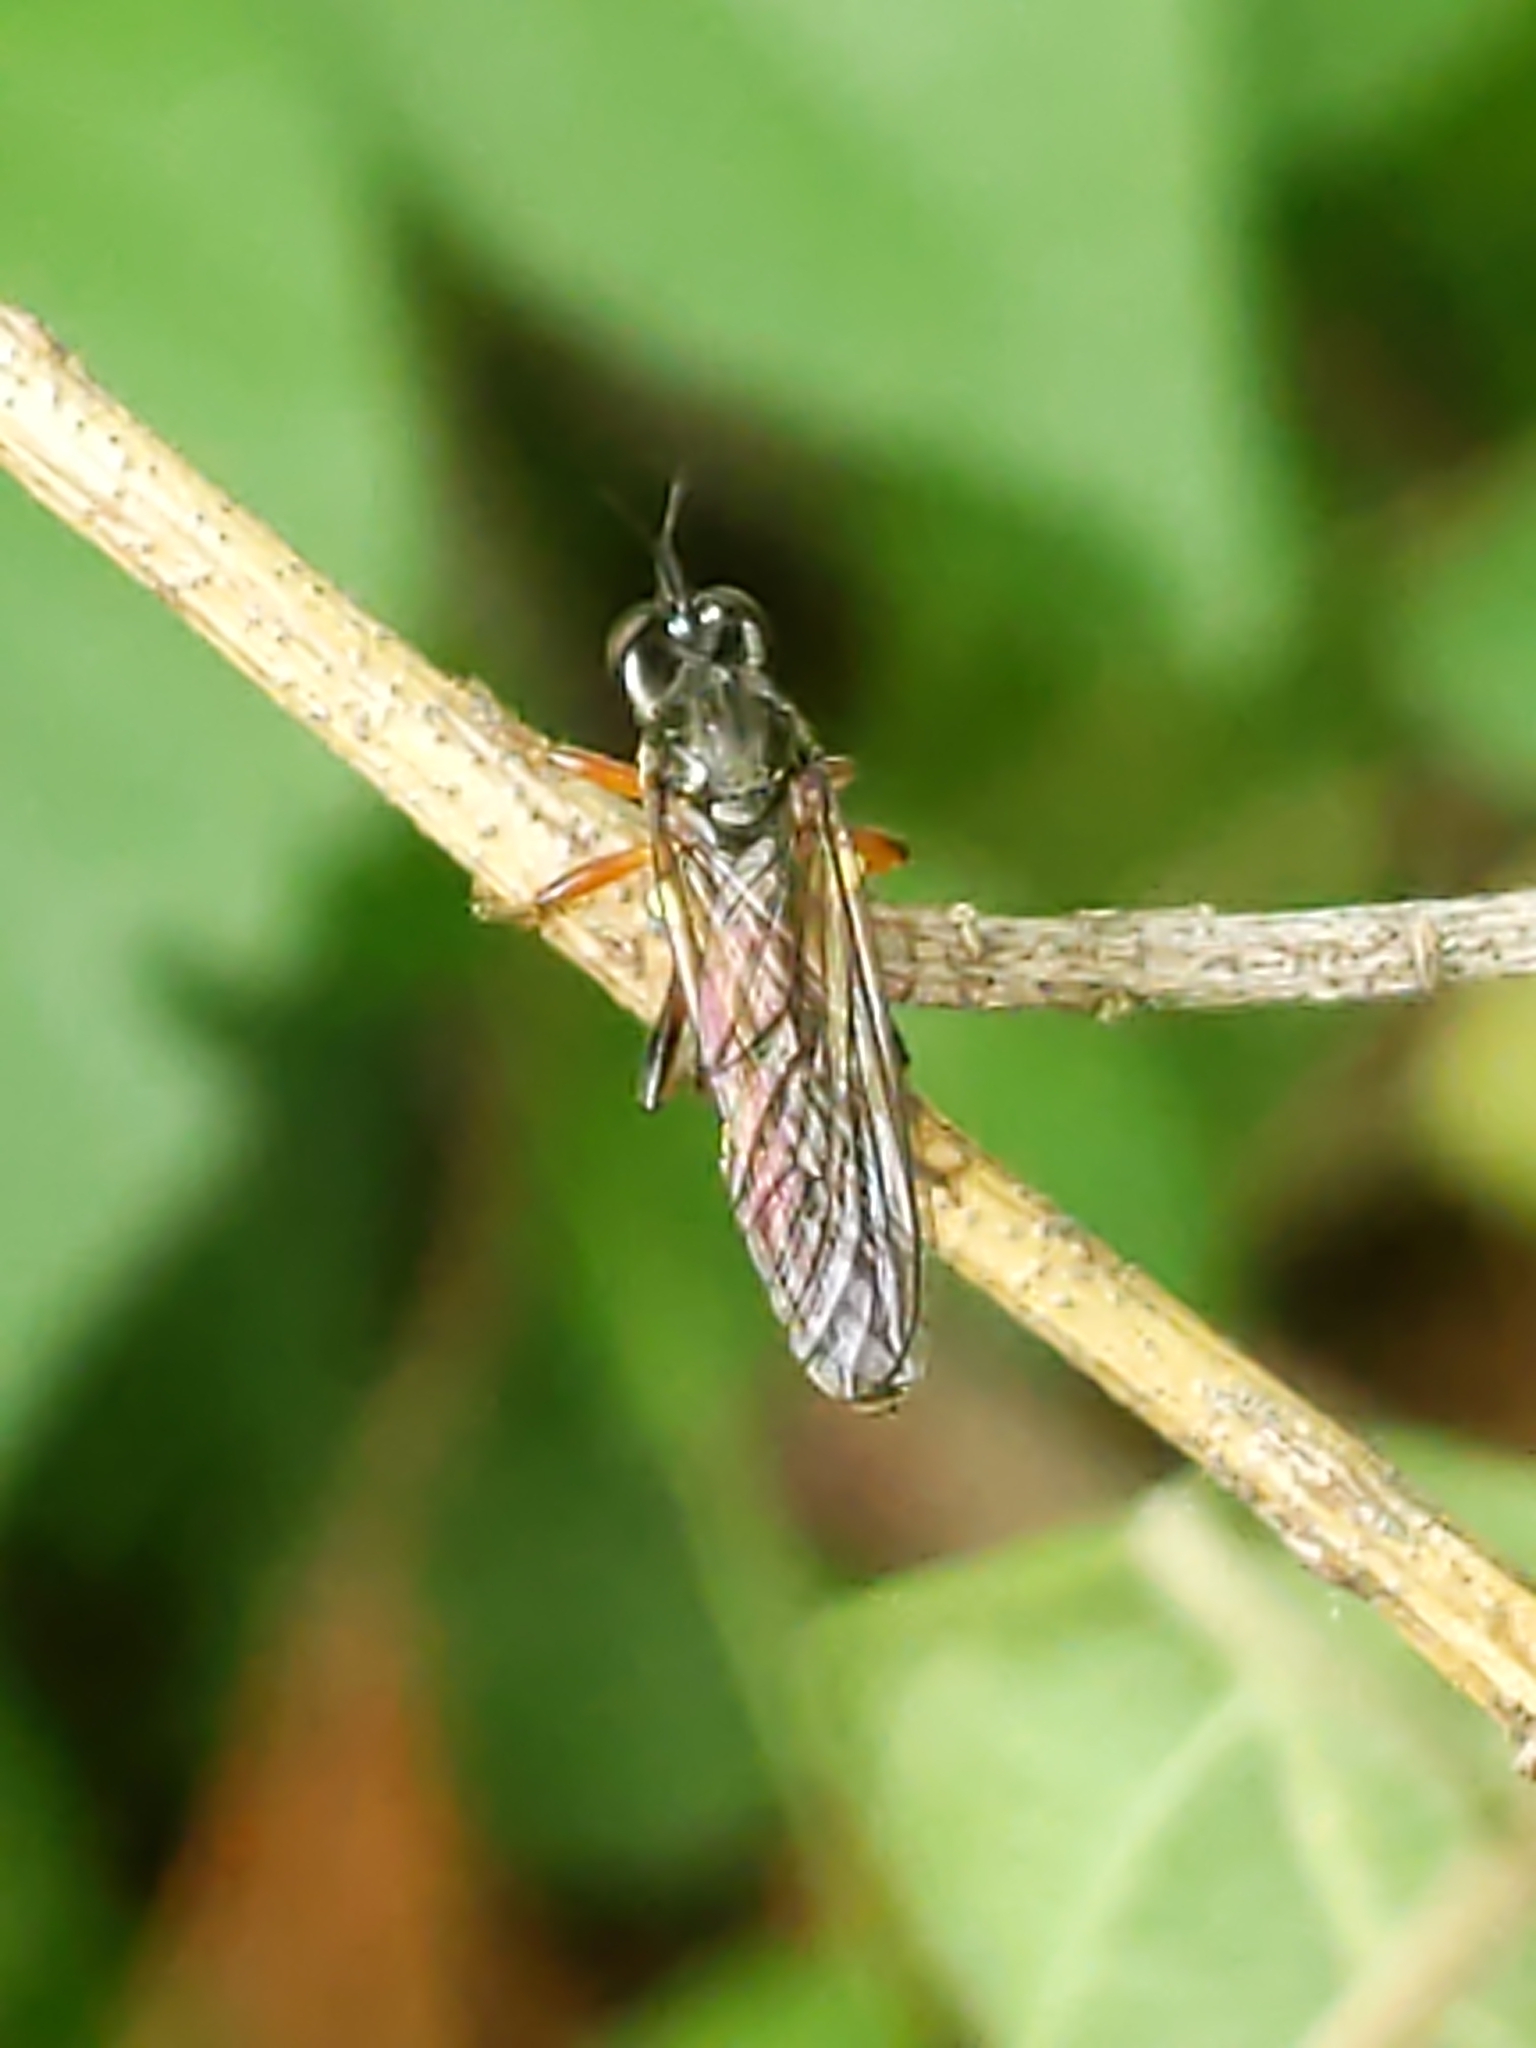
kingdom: Animalia
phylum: Arthropoda
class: Insecta
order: Diptera
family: Asilidae
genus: Dioctria
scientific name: Dioctria hyalipennis
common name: Stripe-legged robberfly
